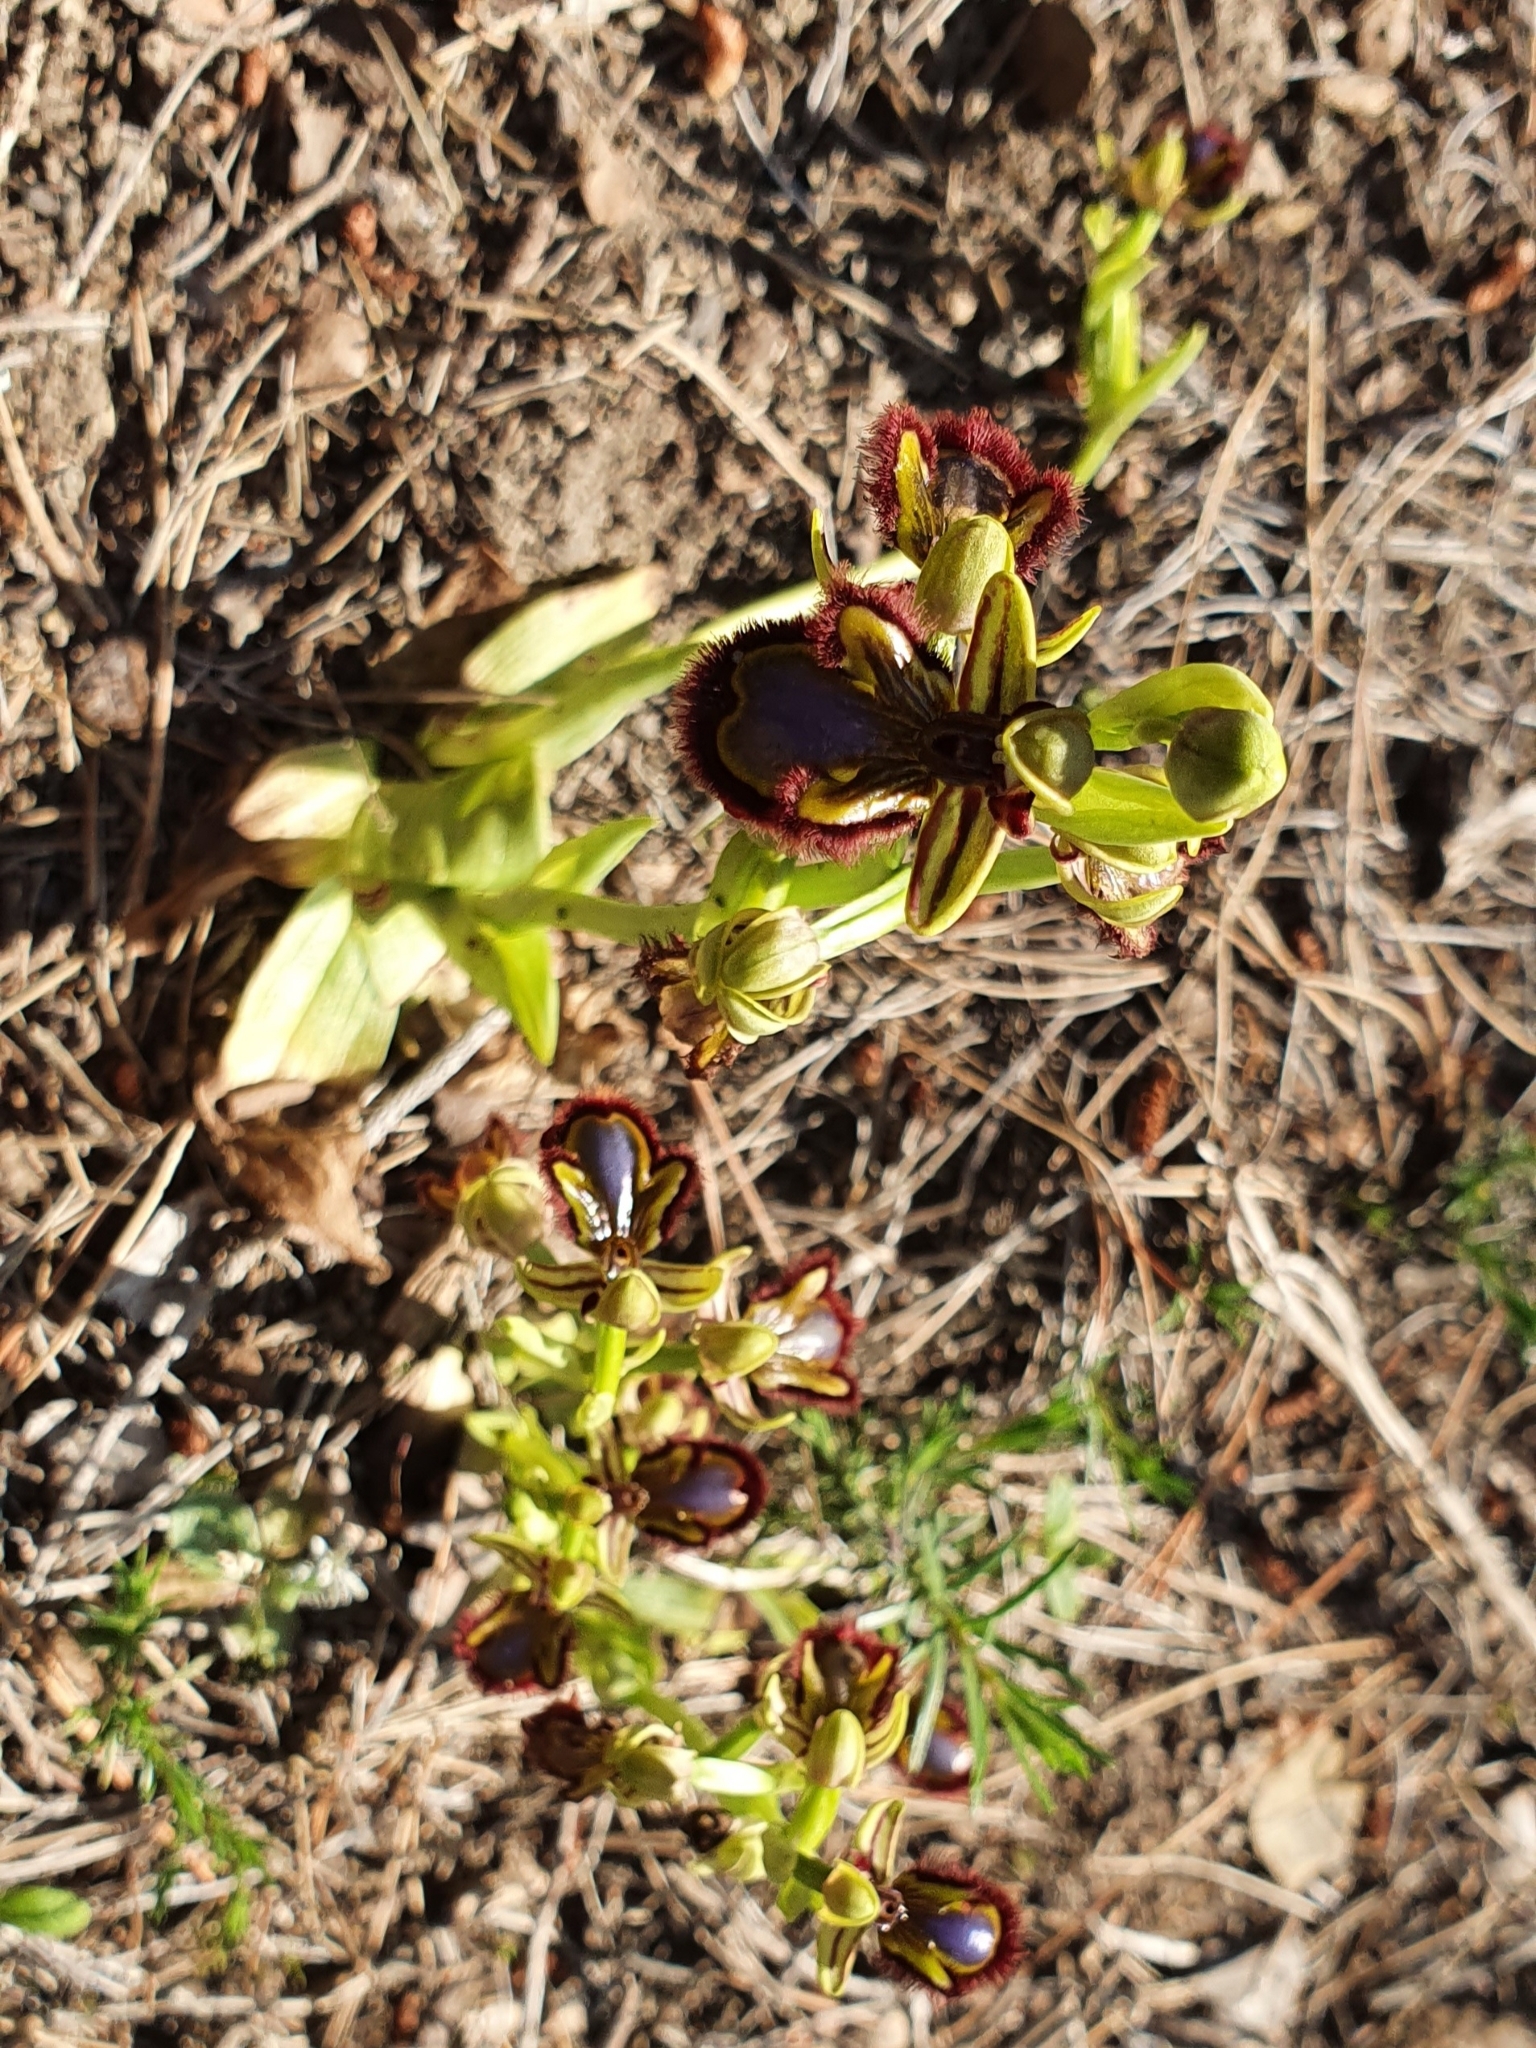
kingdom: Plantae
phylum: Tracheophyta
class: Liliopsida
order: Asparagales
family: Orchidaceae
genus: Ophrys
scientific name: Ophrys speculum
